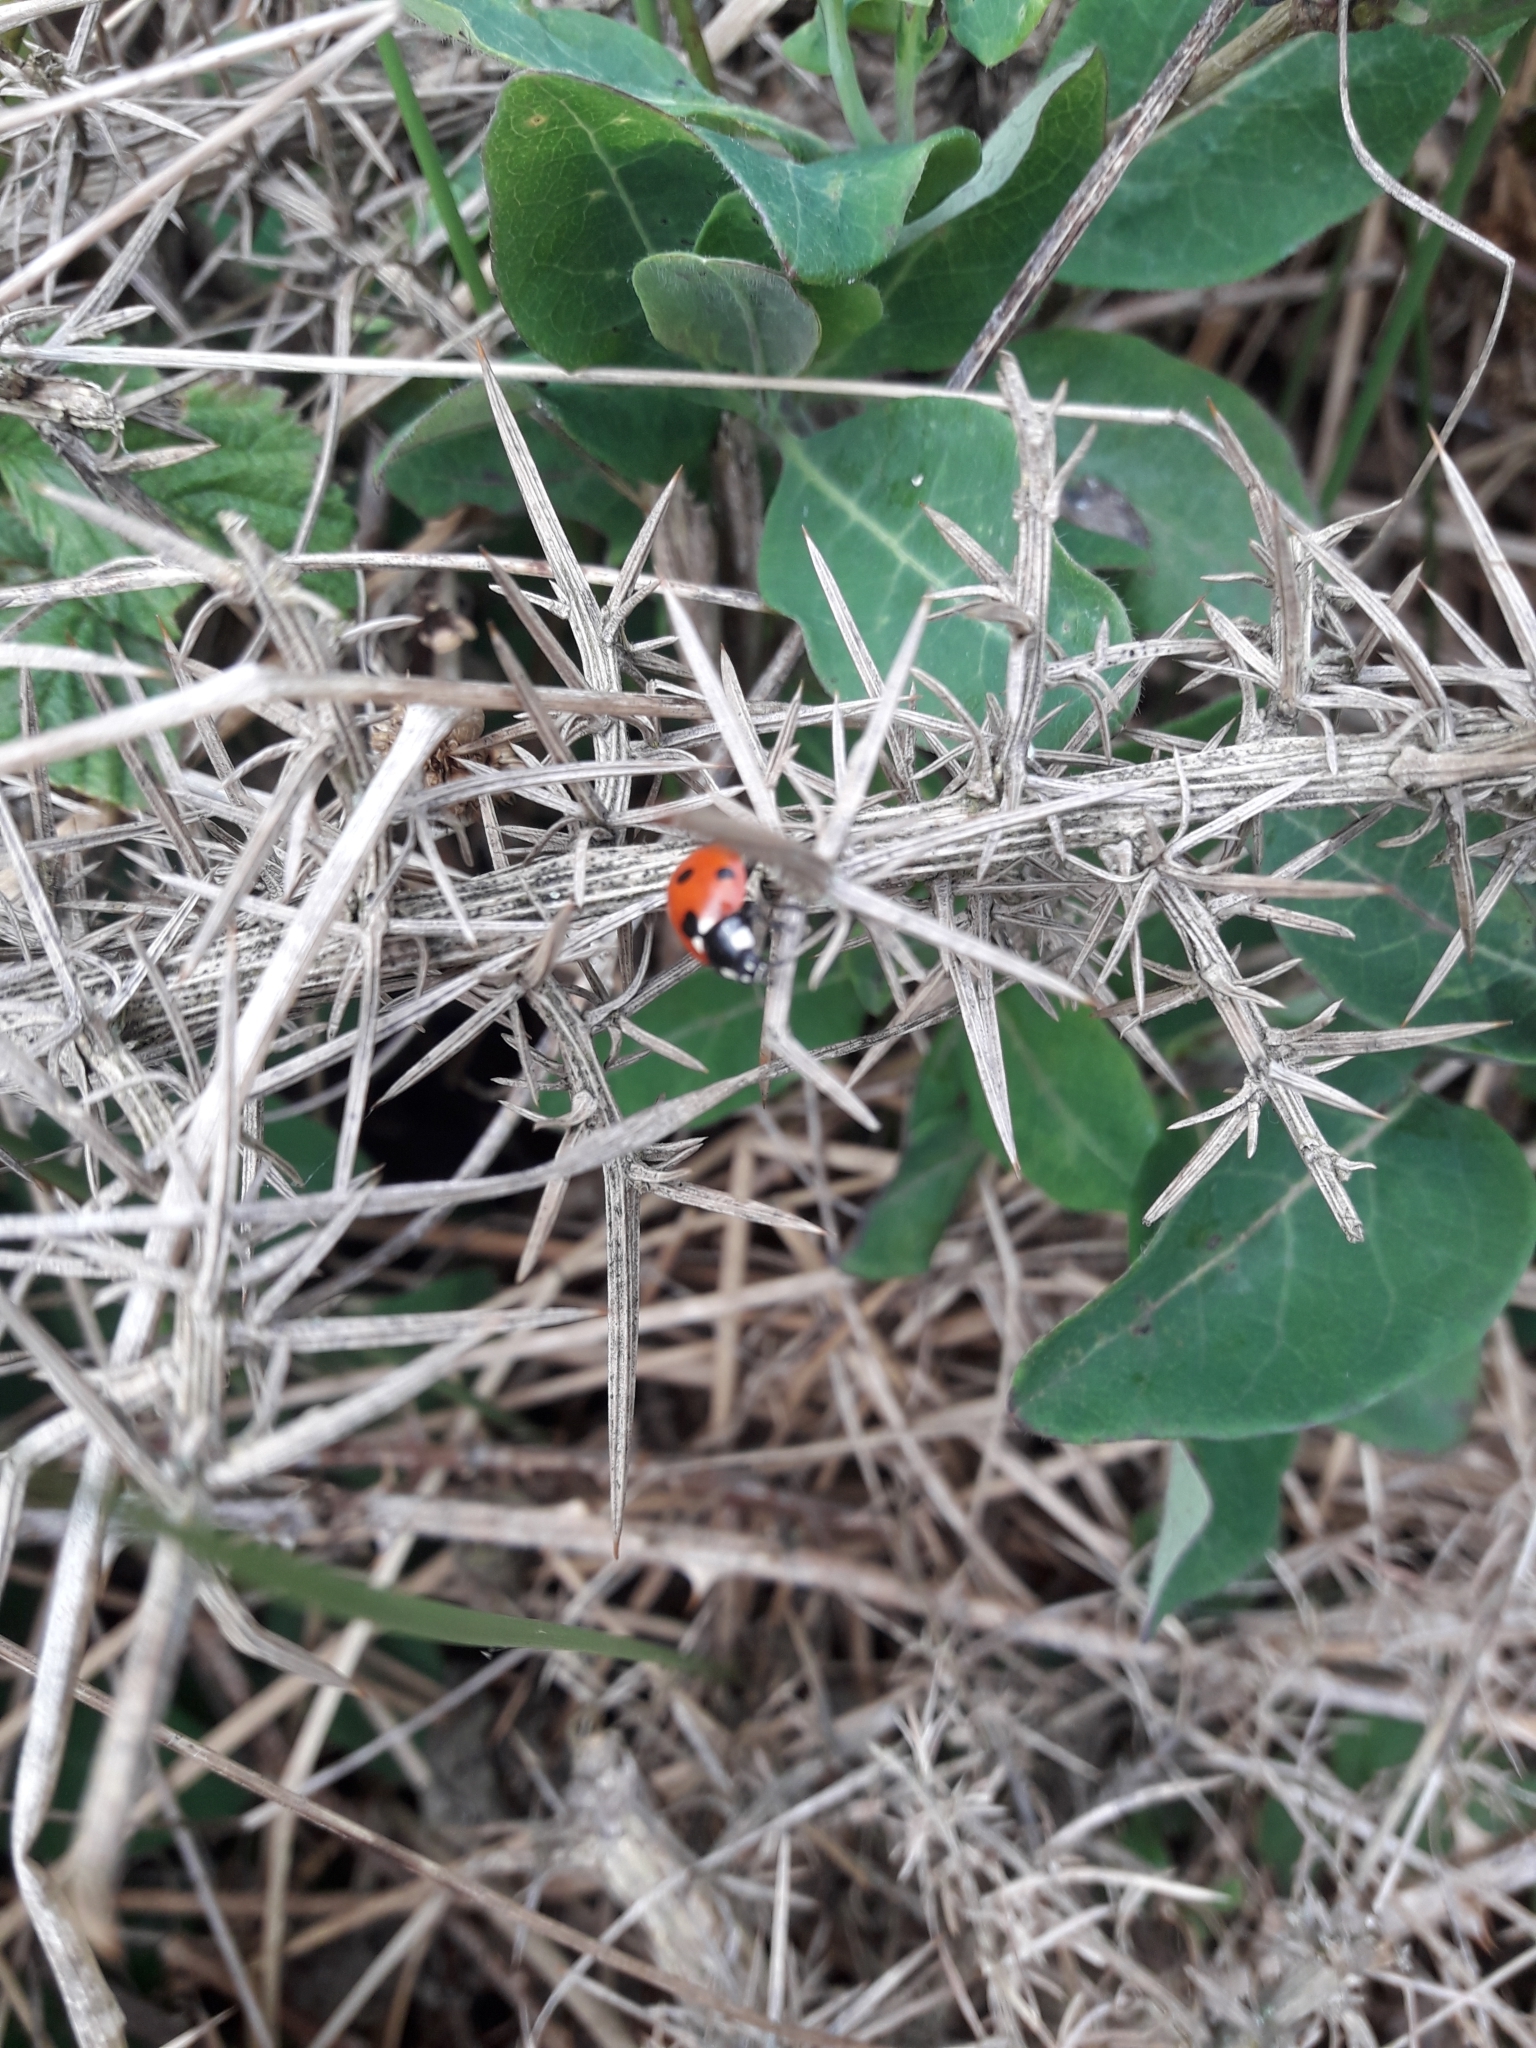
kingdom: Animalia
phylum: Arthropoda
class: Insecta
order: Coleoptera
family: Coccinellidae
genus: Coccinella
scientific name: Coccinella septempunctata
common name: Sevenspotted lady beetle
